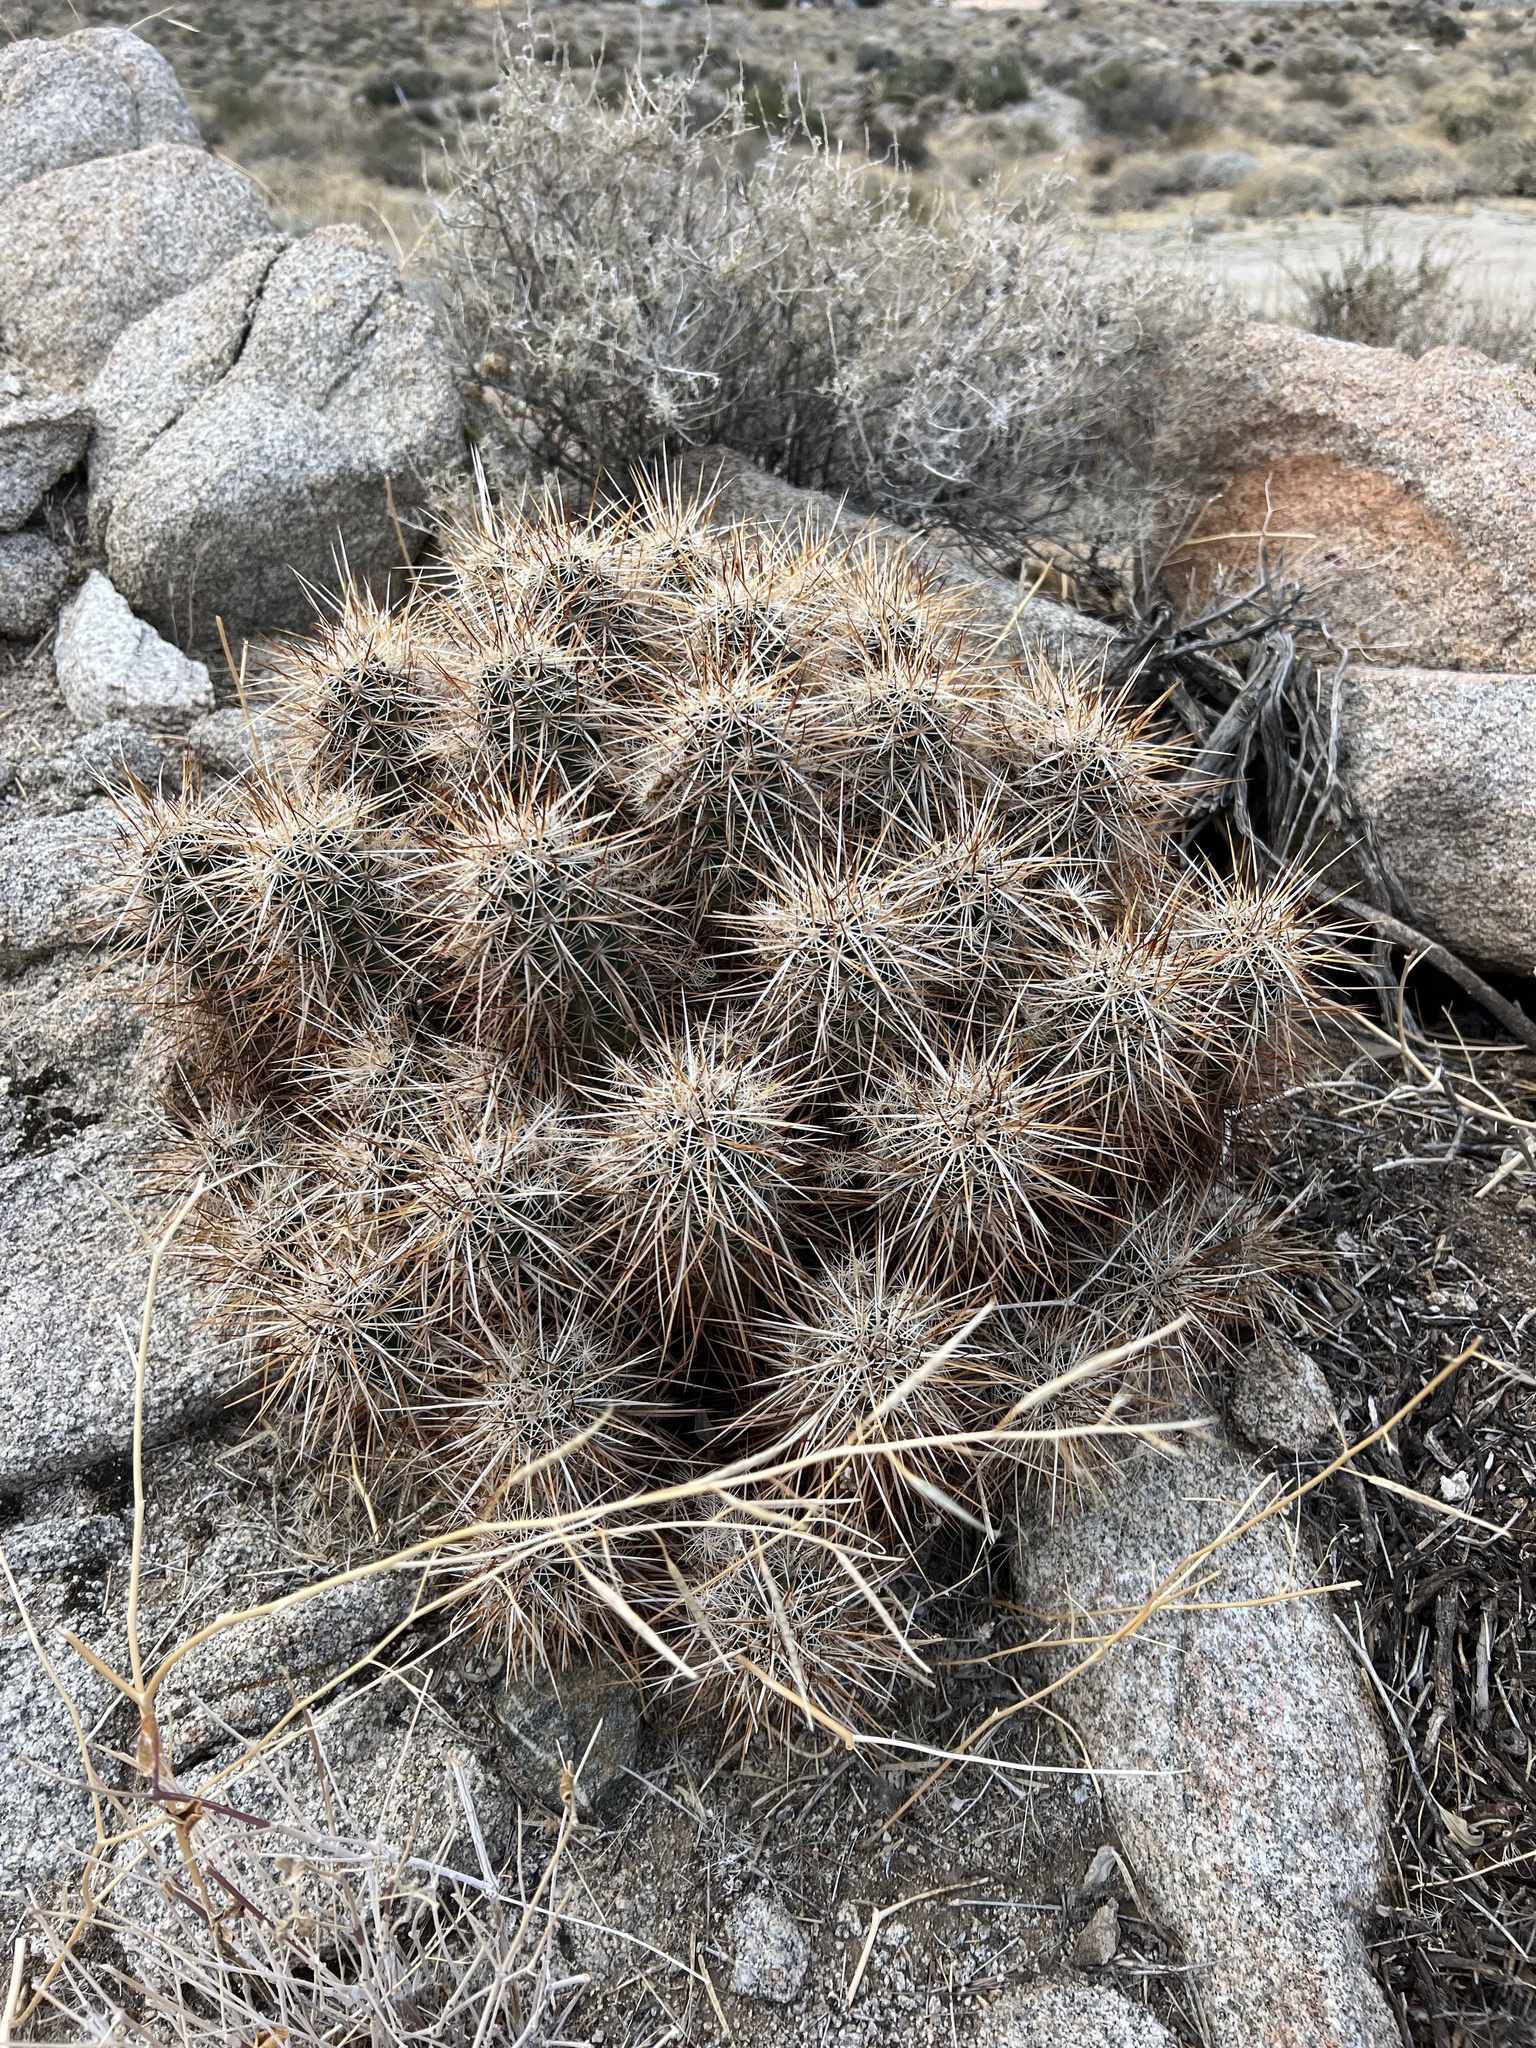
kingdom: Plantae
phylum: Tracheophyta
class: Magnoliopsida
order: Caryophyllales
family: Cactaceae
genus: Echinocereus
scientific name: Echinocereus engelmannii
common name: Engelmann's hedgehog cactus
